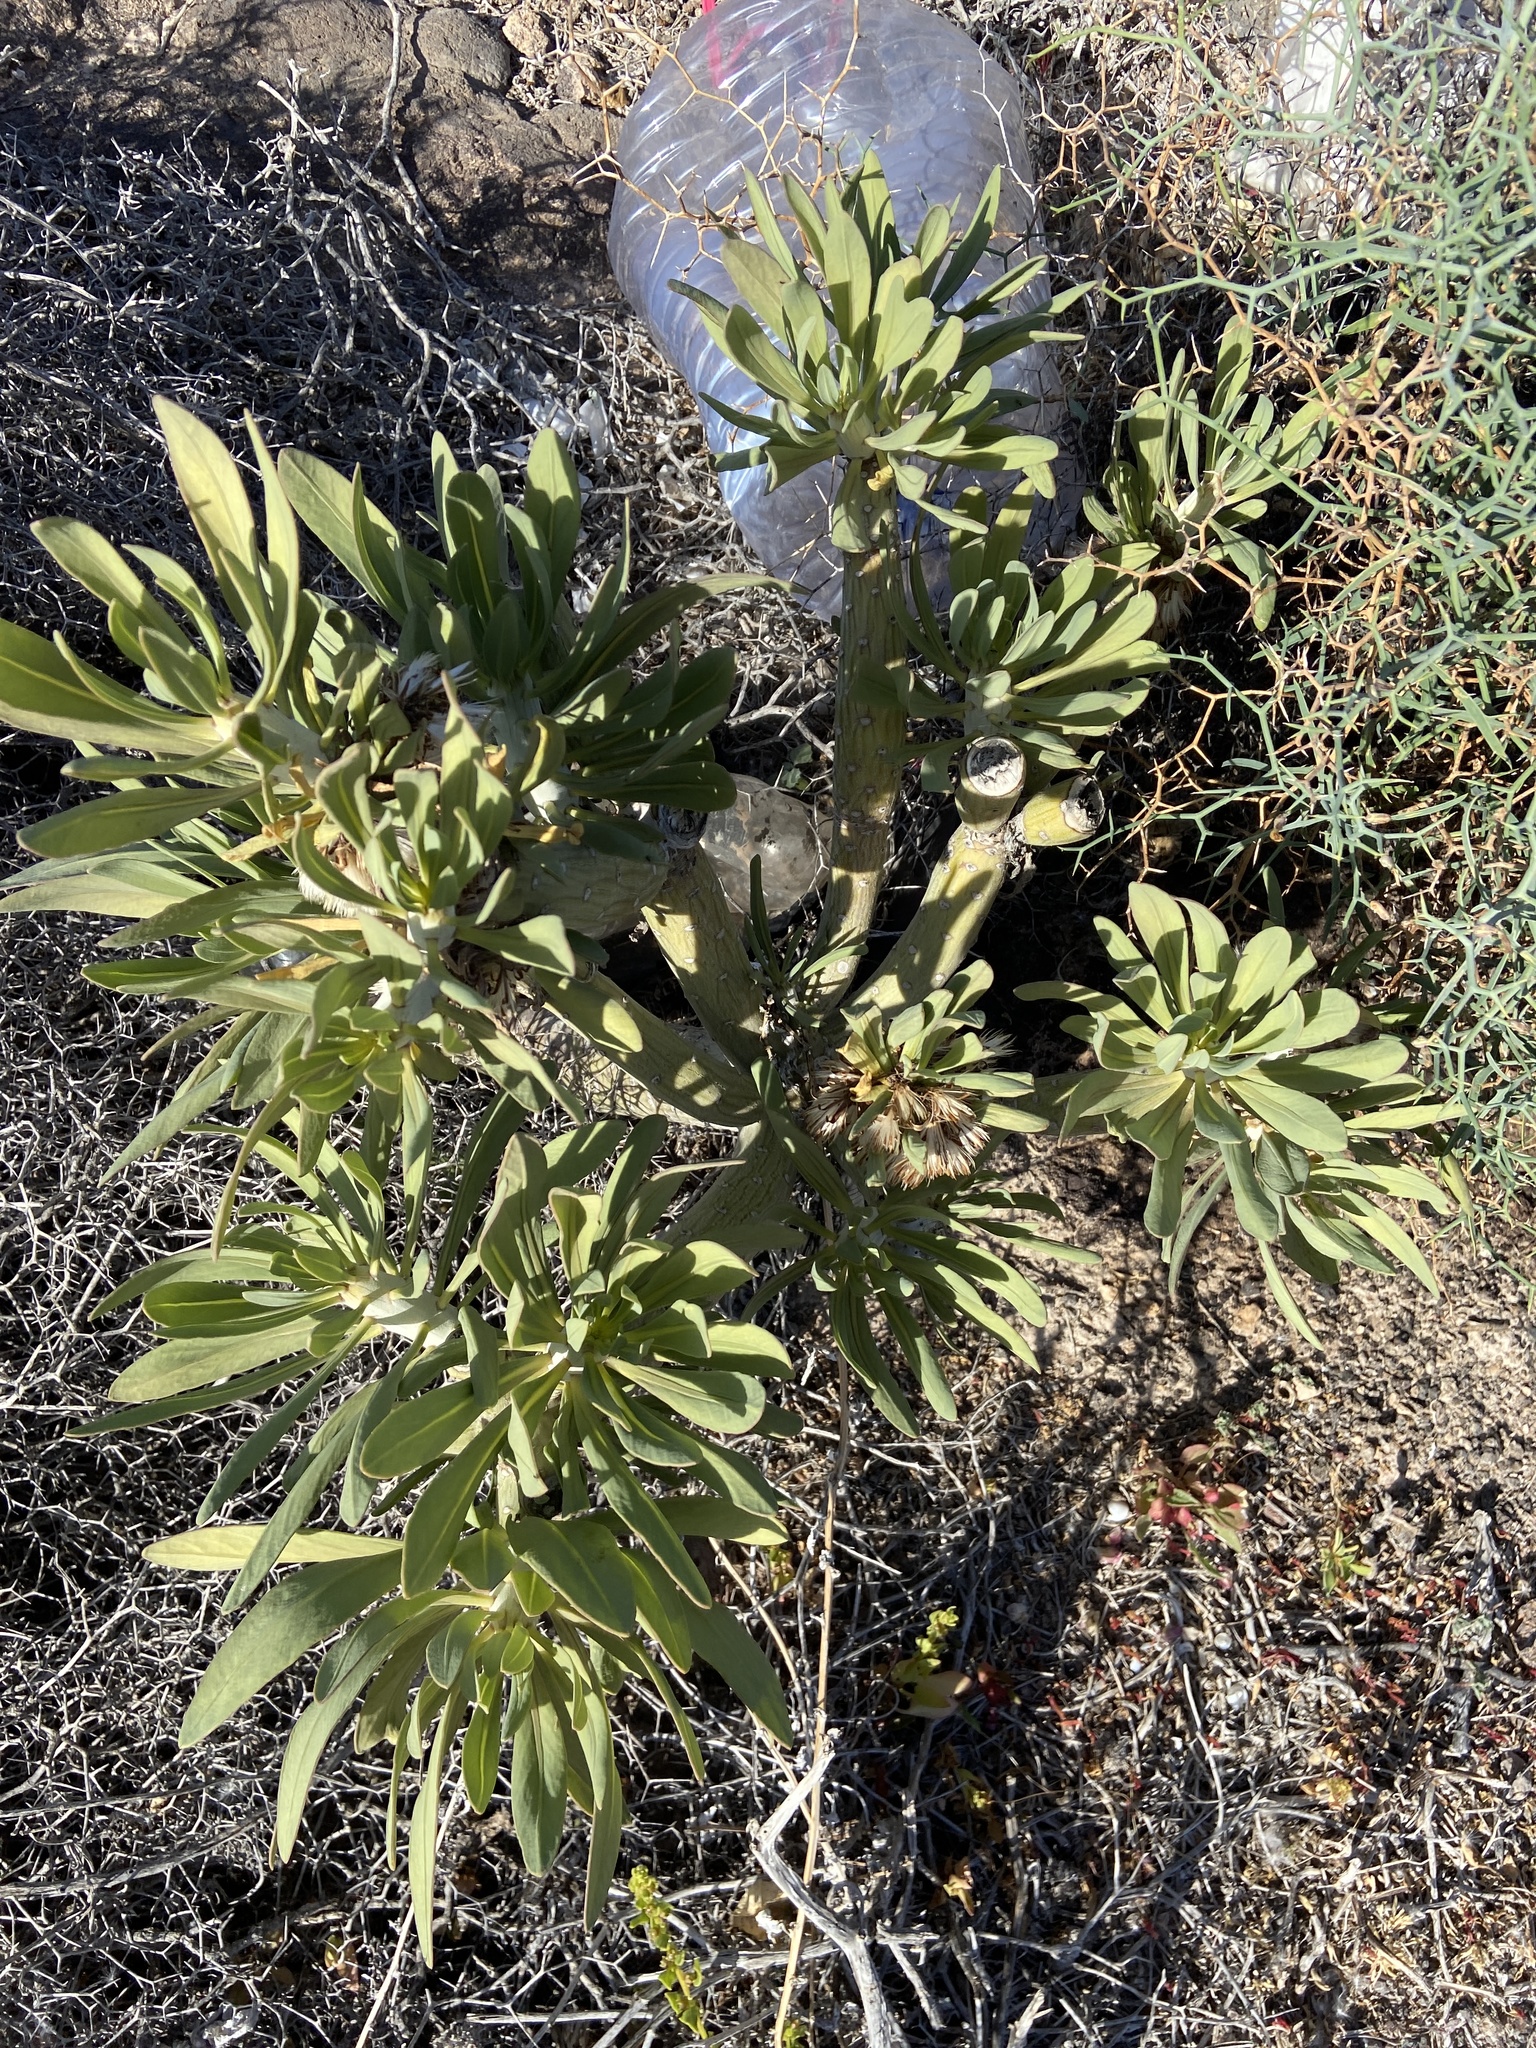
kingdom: Plantae
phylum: Tracheophyta
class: Magnoliopsida
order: Asterales
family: Asteraceae
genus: Kleinia
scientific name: Kleinia neriifolia
